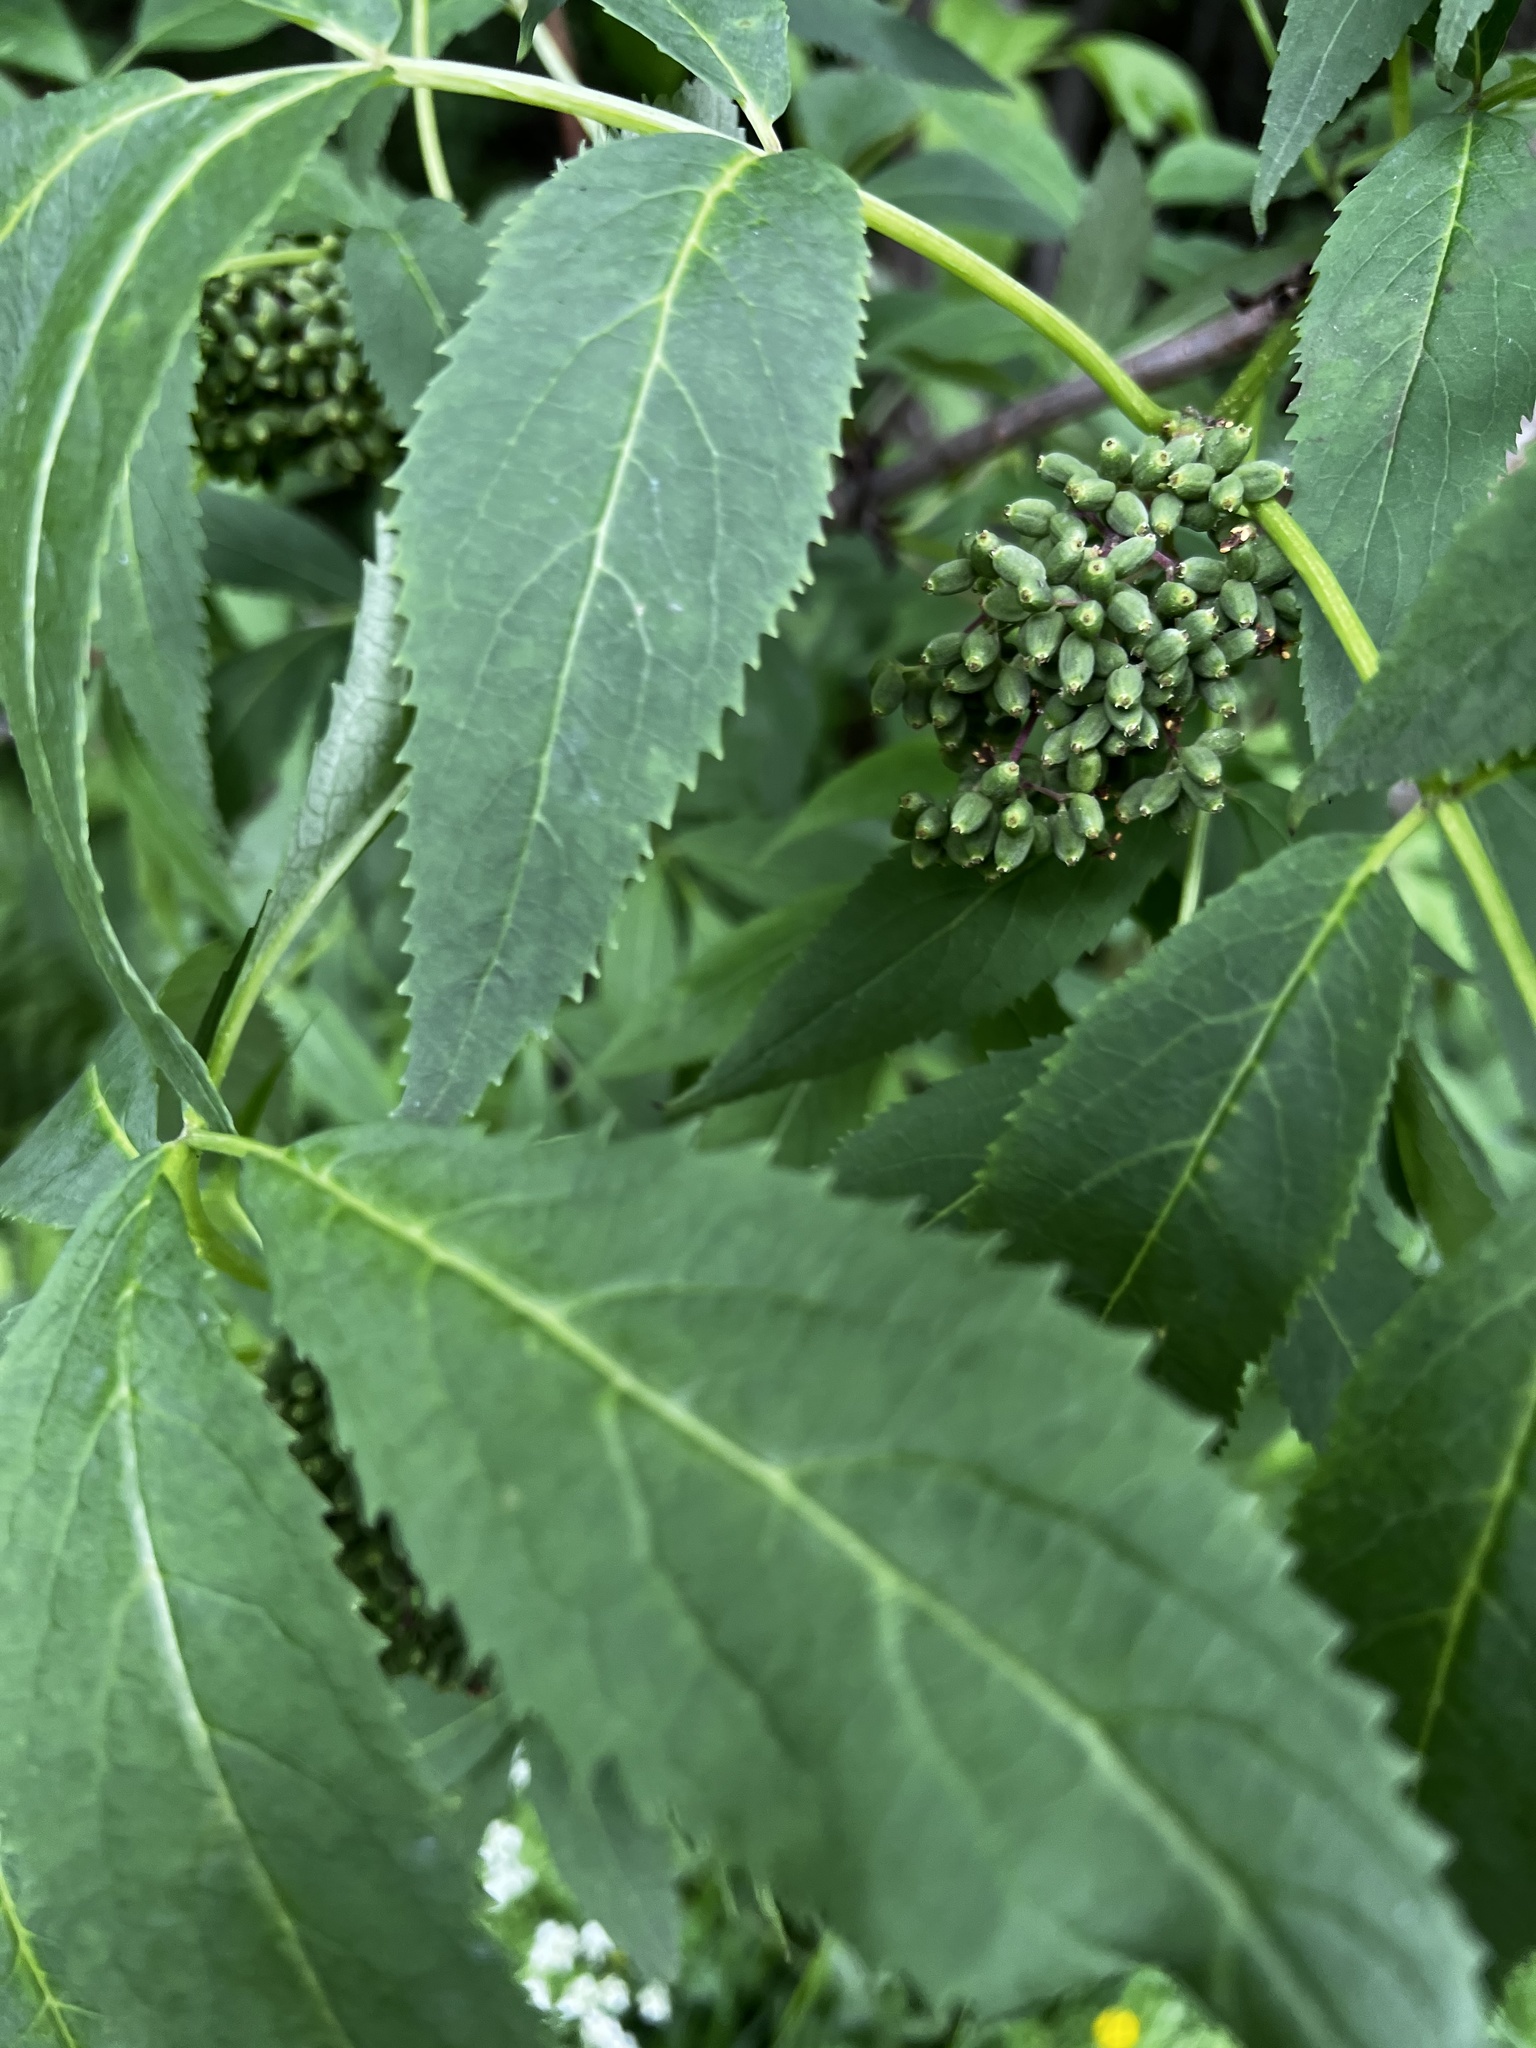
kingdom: Plantae
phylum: Tracheophyta
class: Magnoliopsida
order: Dipsacales
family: Viburnaceae
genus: Sambucus
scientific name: Sambucus racemosa
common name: Red-berried elder
